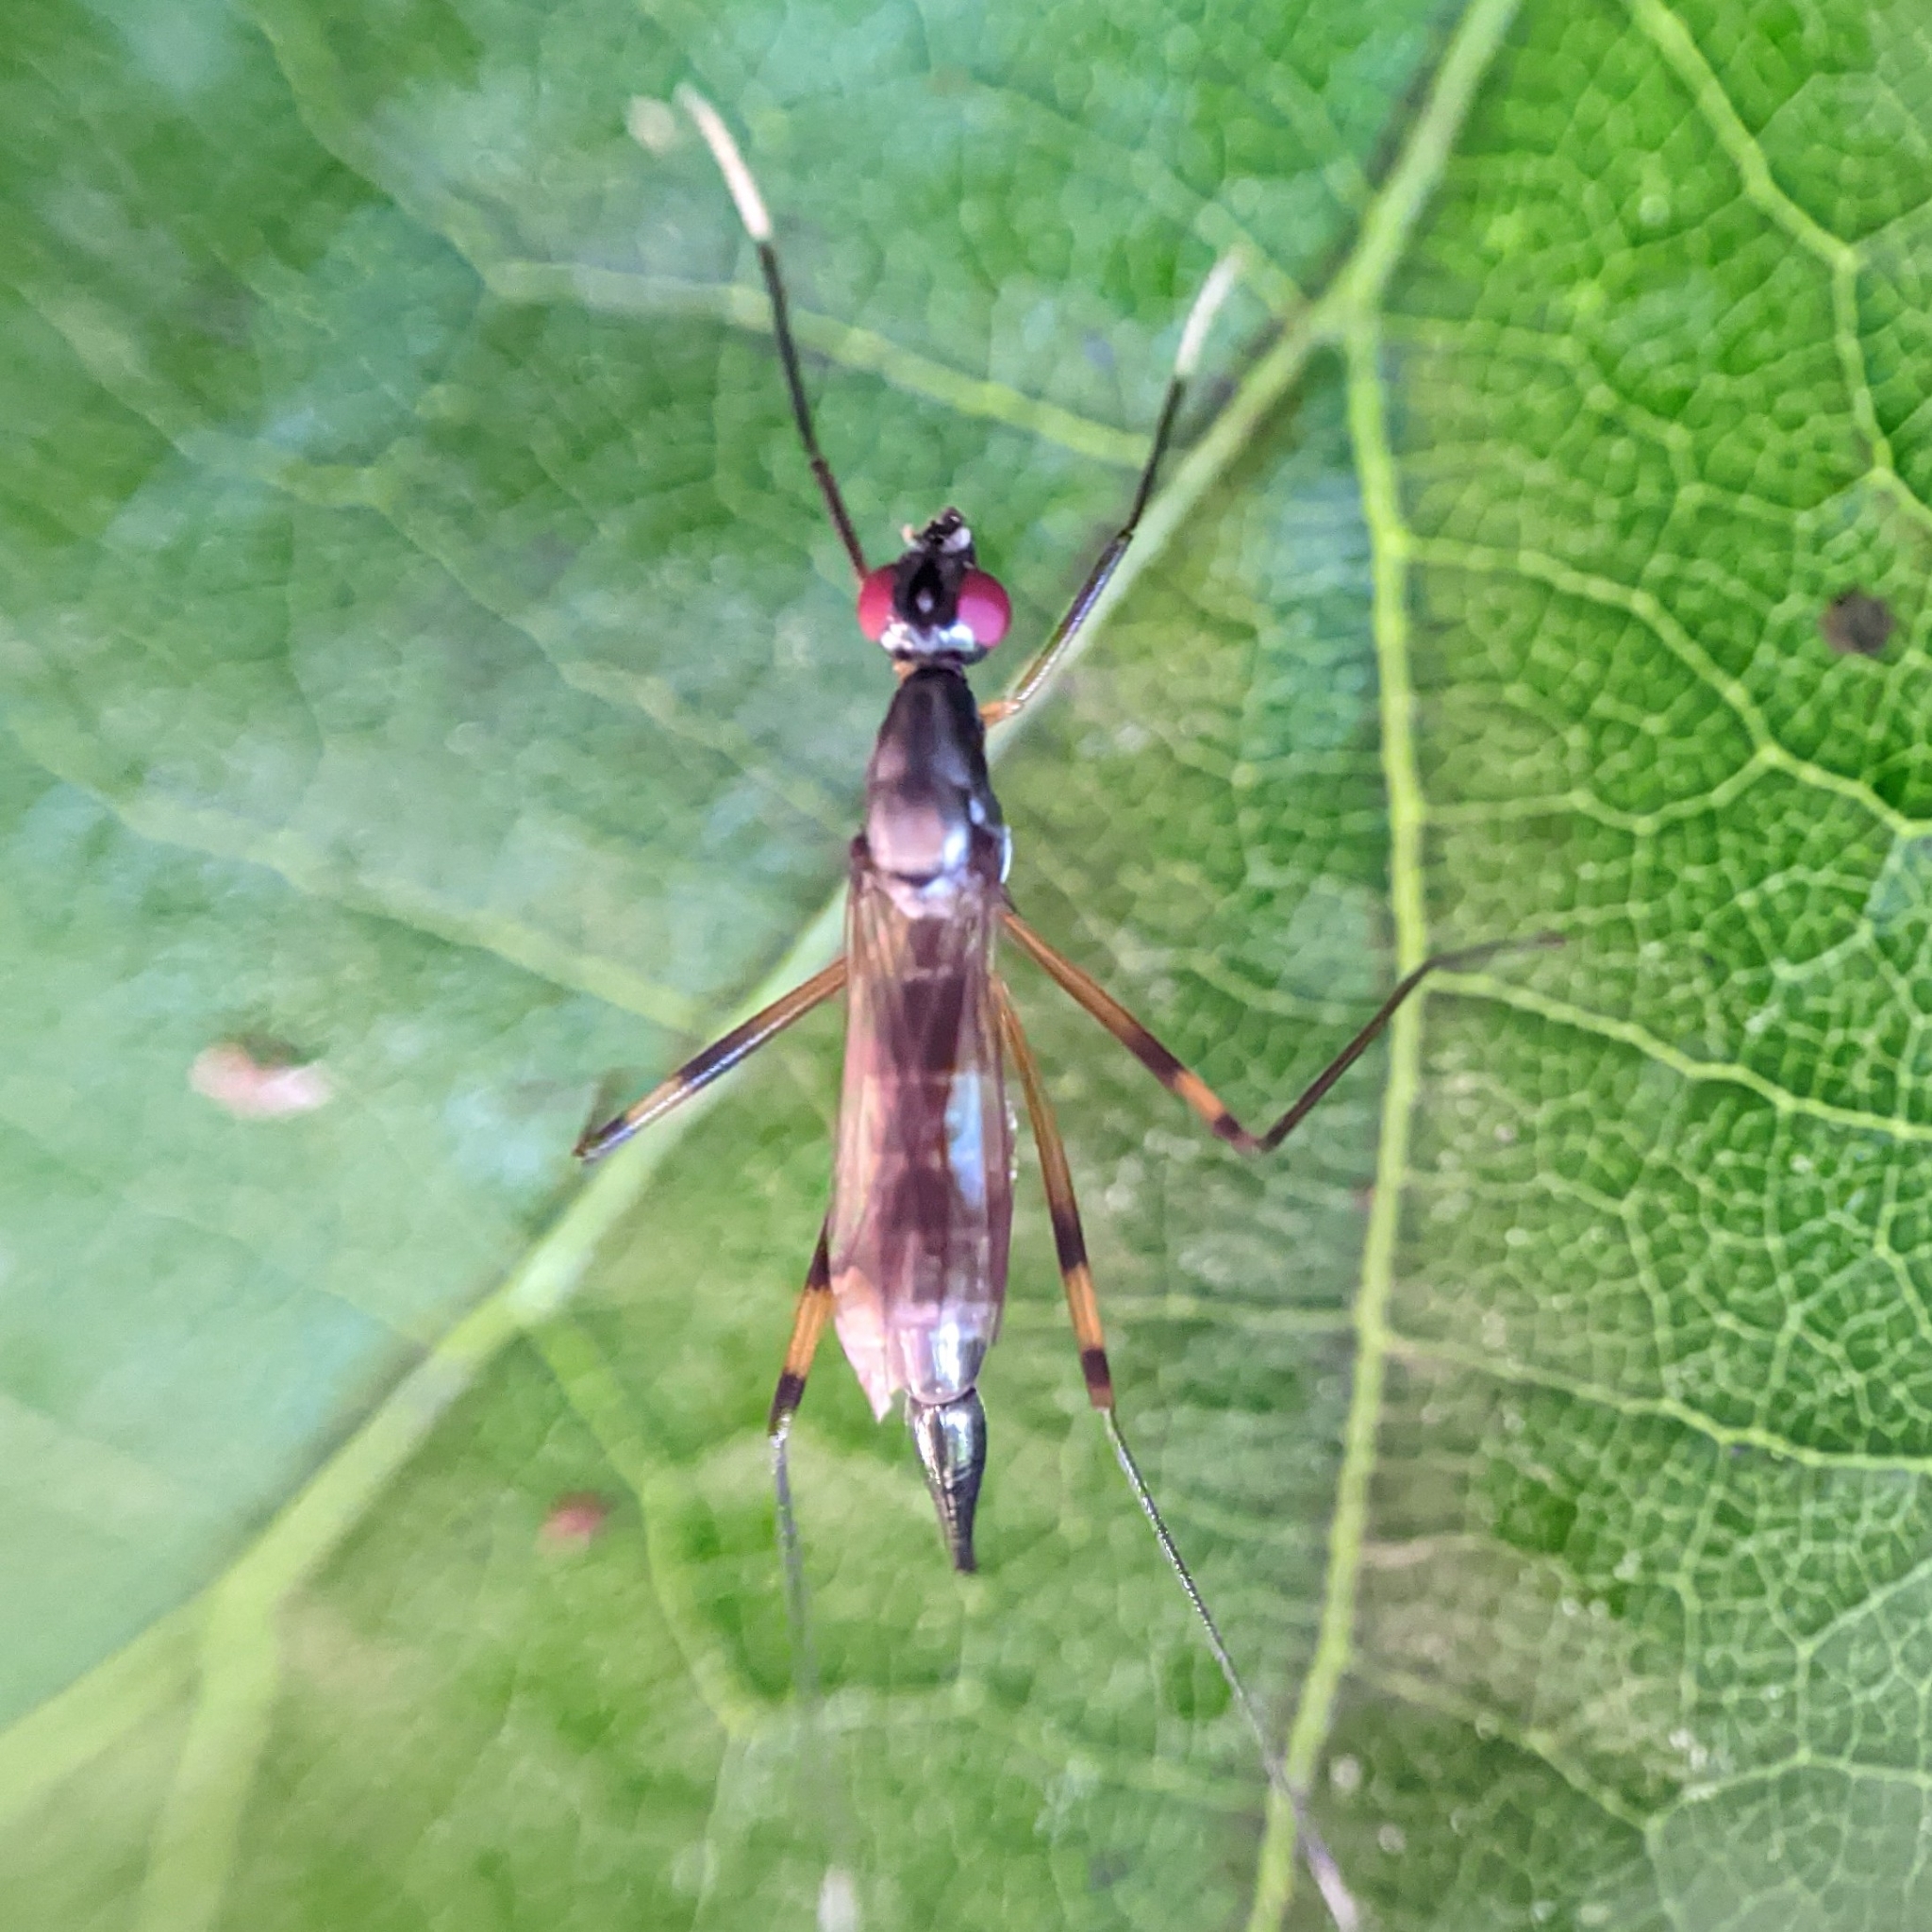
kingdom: Animalia
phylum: Arthropoda
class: Insecta
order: Diptera
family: Micropezidae
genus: Rainieria
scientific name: Rainieria antennaepes
